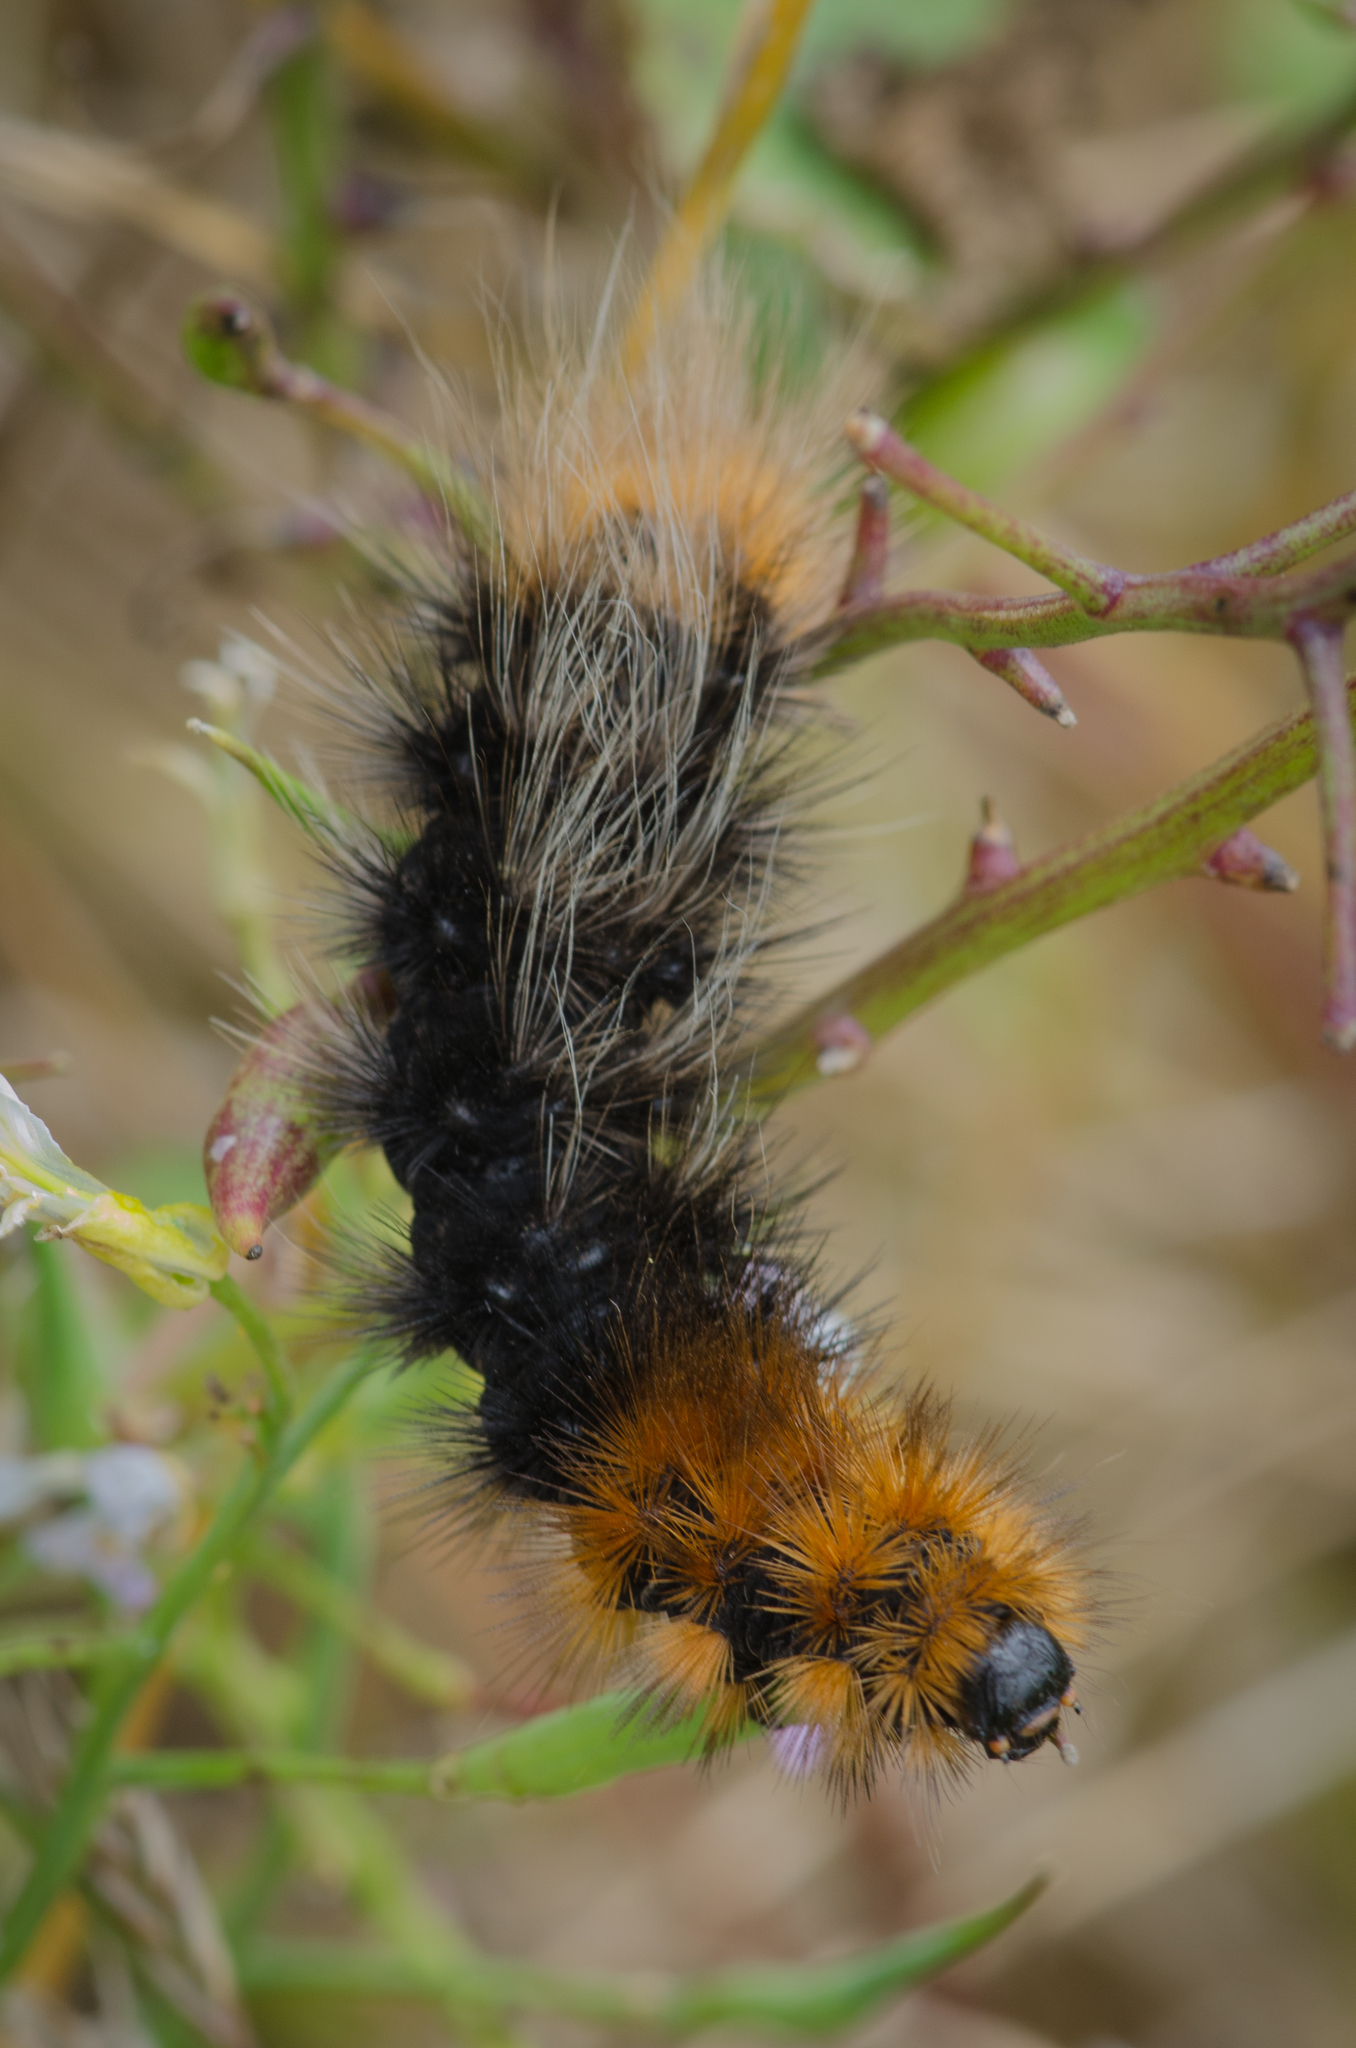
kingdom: Animalia
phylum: Arthropoda
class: Insecta
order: Lepidoptera
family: Erebidae
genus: Arctia
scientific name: Arctia tigrina
